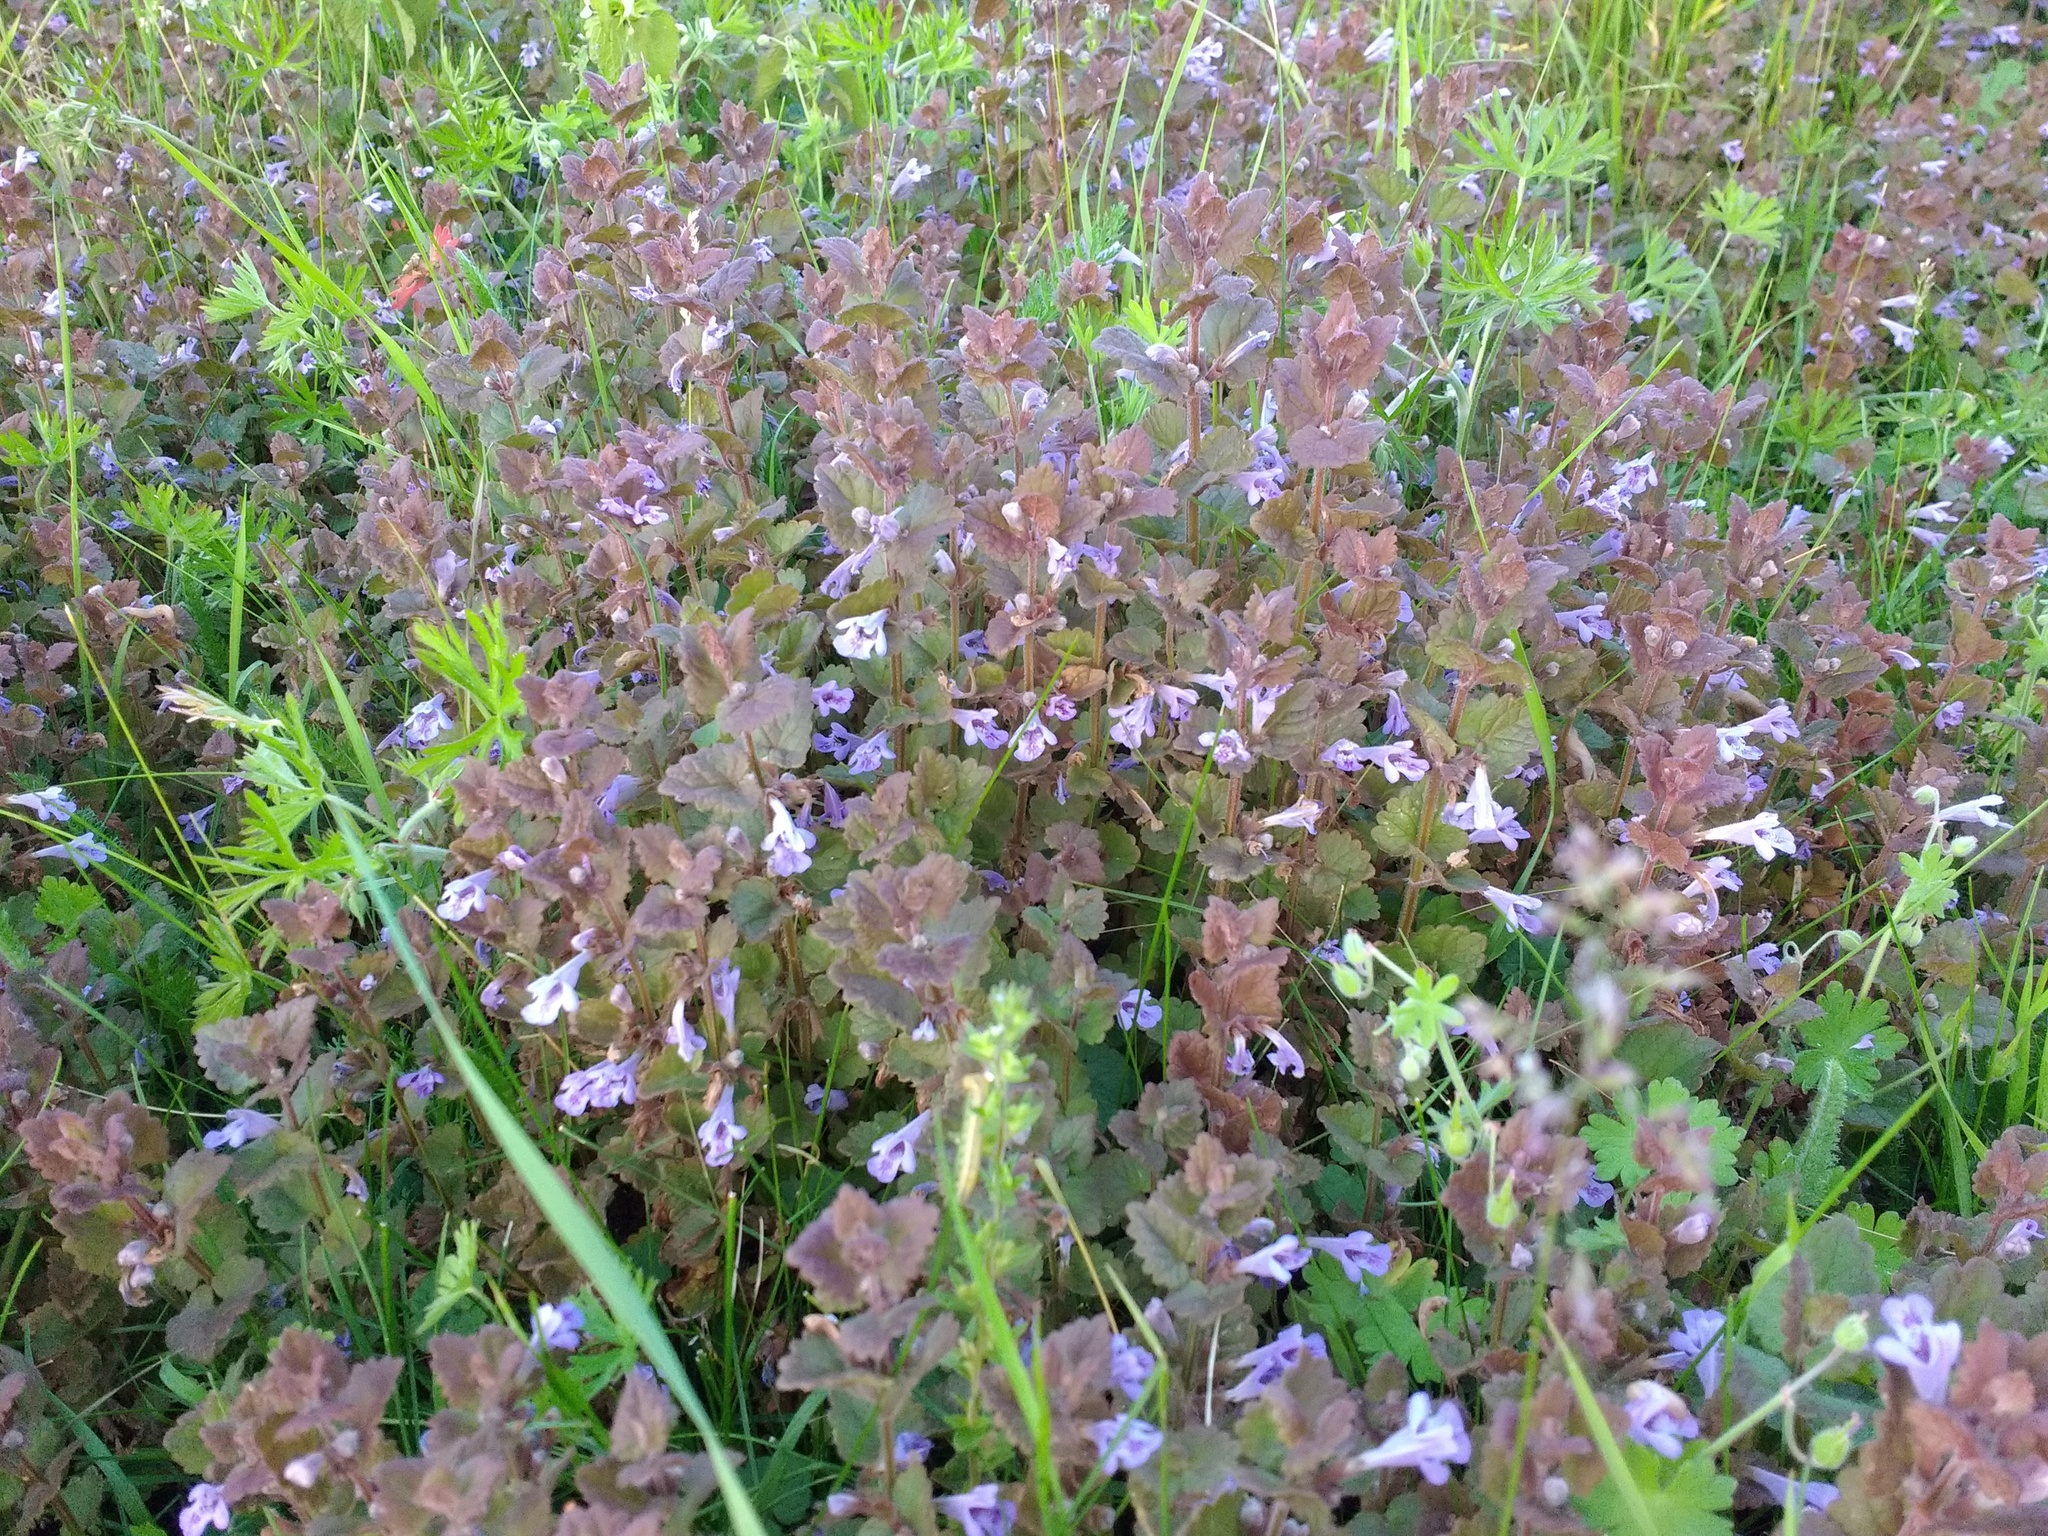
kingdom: Plantae
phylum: Tracheophyta
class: Magnoliopsida
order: Lamiales
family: Lamiaceae
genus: Glechoma
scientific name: Glechoma hederacea
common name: Ground ivy
